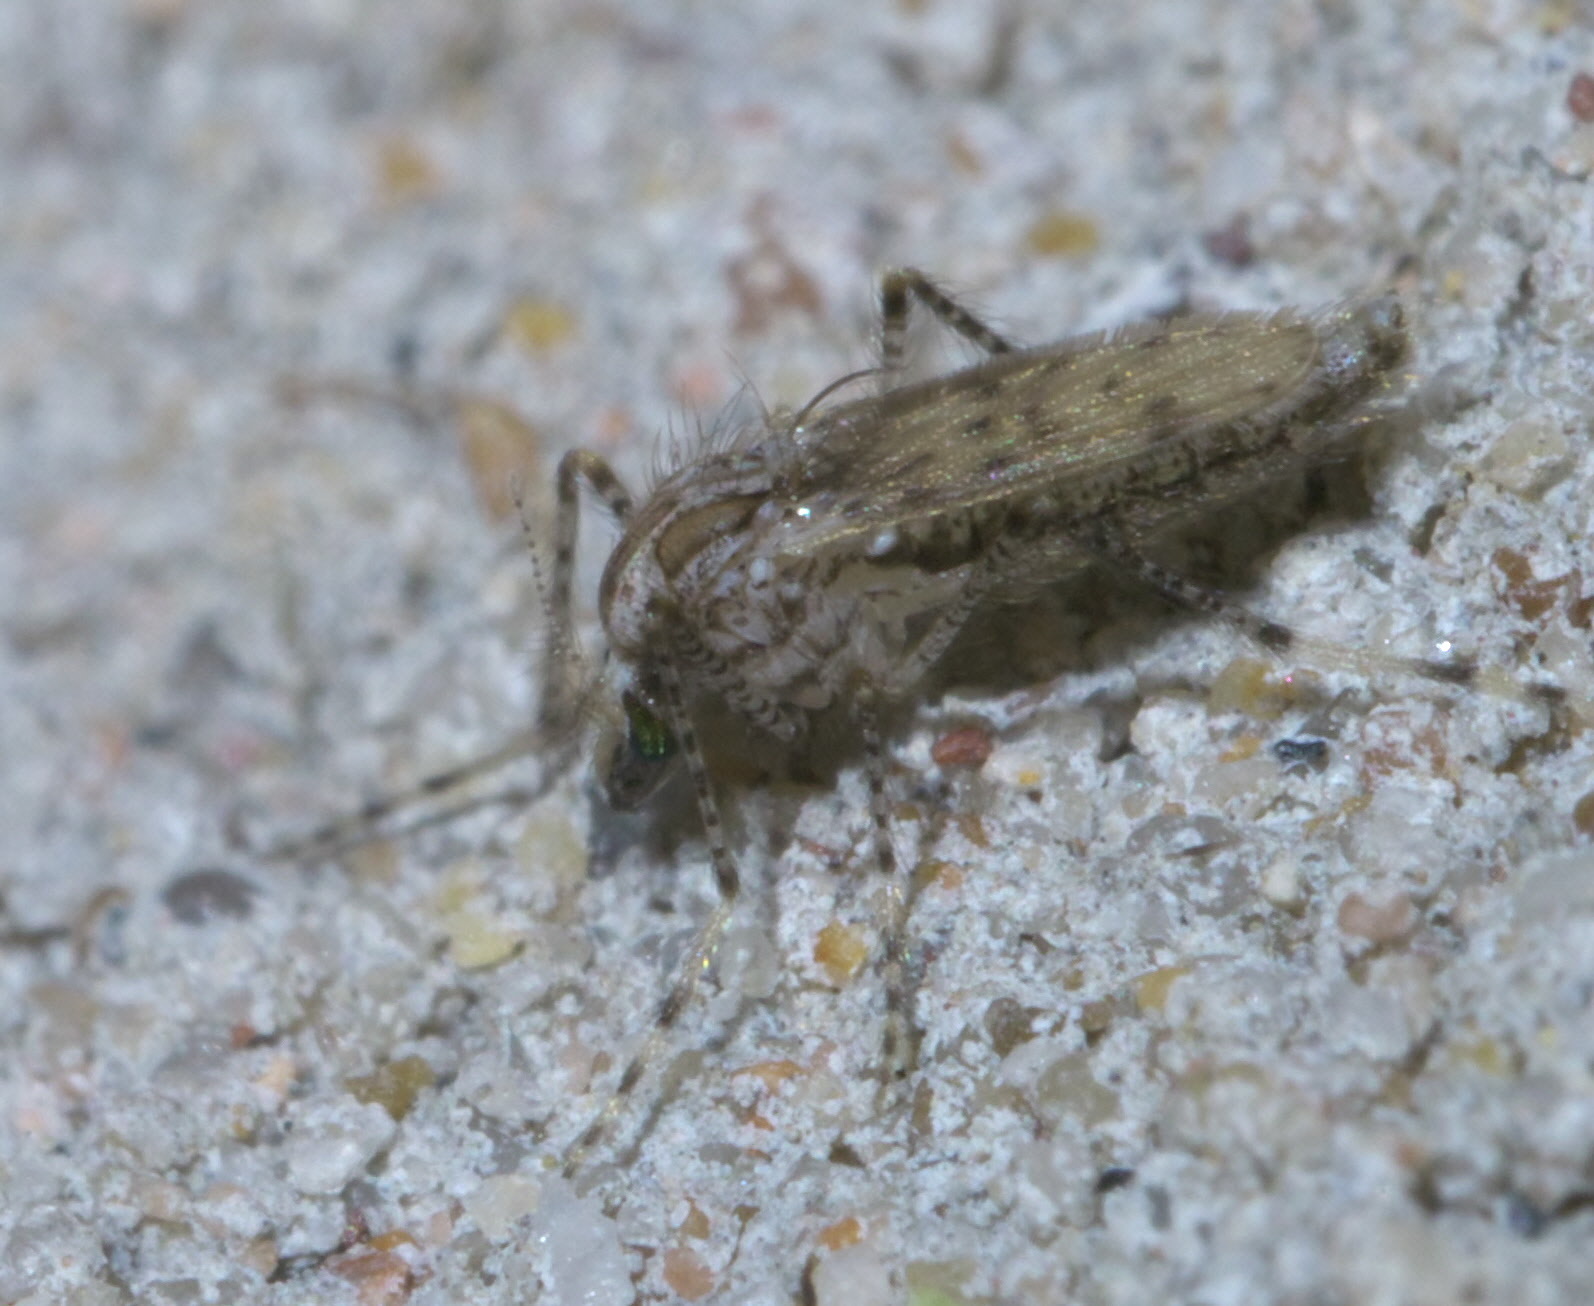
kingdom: Animalia
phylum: Arthropoda
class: Insecta
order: Diptera
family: Chaoboridae
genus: Chaoborus
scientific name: Chaoborus punctipennis
